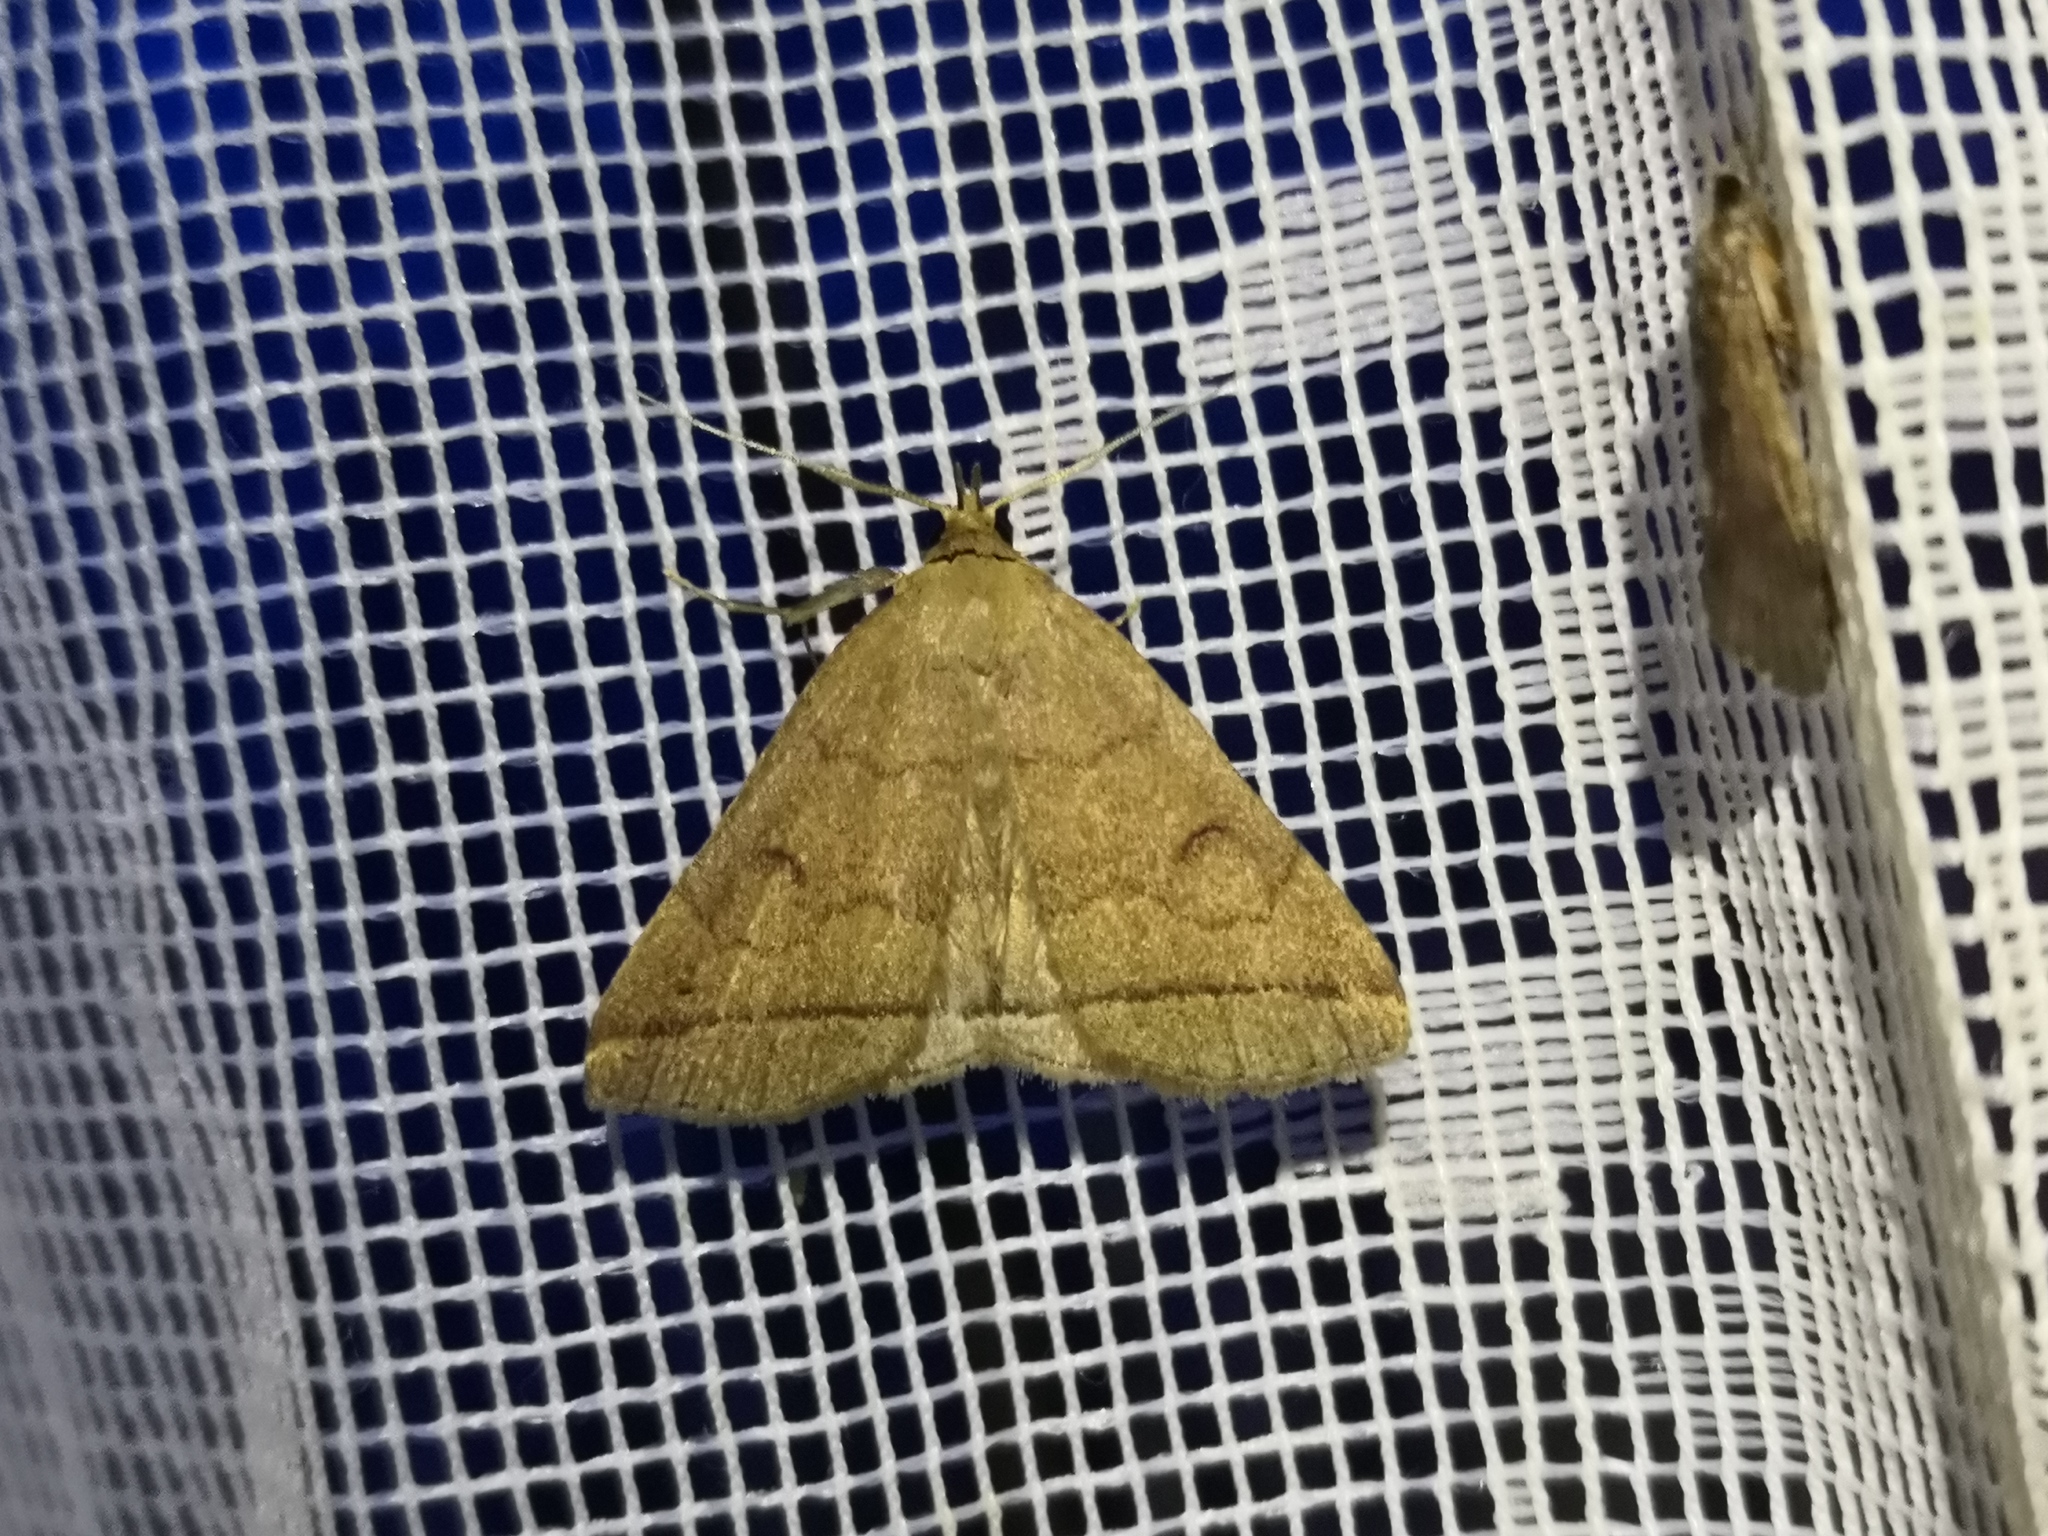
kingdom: Animalia
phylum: Arthropoda
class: Insecta
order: Lepidoptera
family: Erebidae
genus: Herminia
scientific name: Herminia tarsipennalis
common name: Fan-foot
